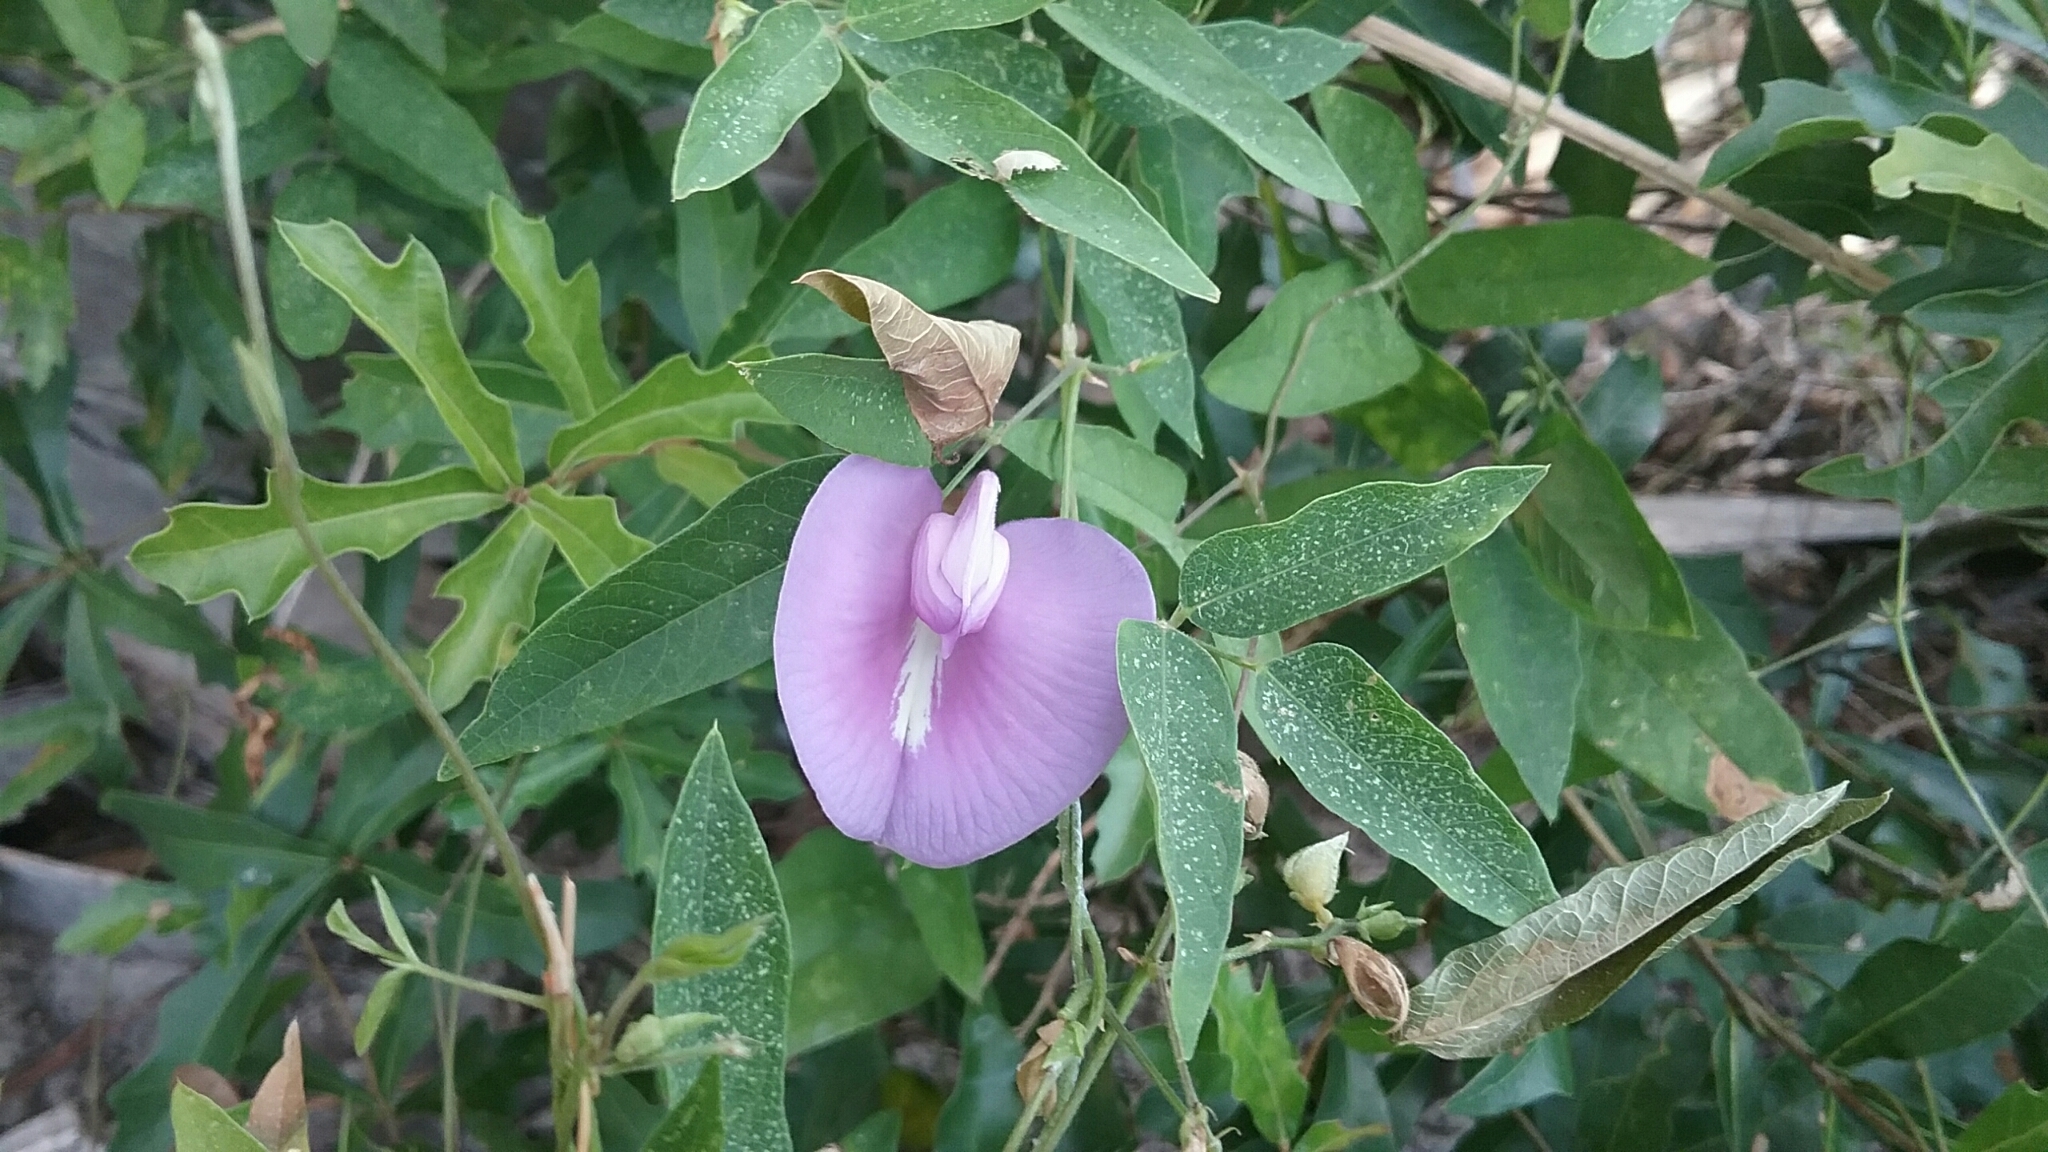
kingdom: Plantae
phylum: Tracheophyta
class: Magnoliopsida
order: Fabales
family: Fabaceae
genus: Centrosema
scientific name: Centrosema virginianum
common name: Butterfly-pea
